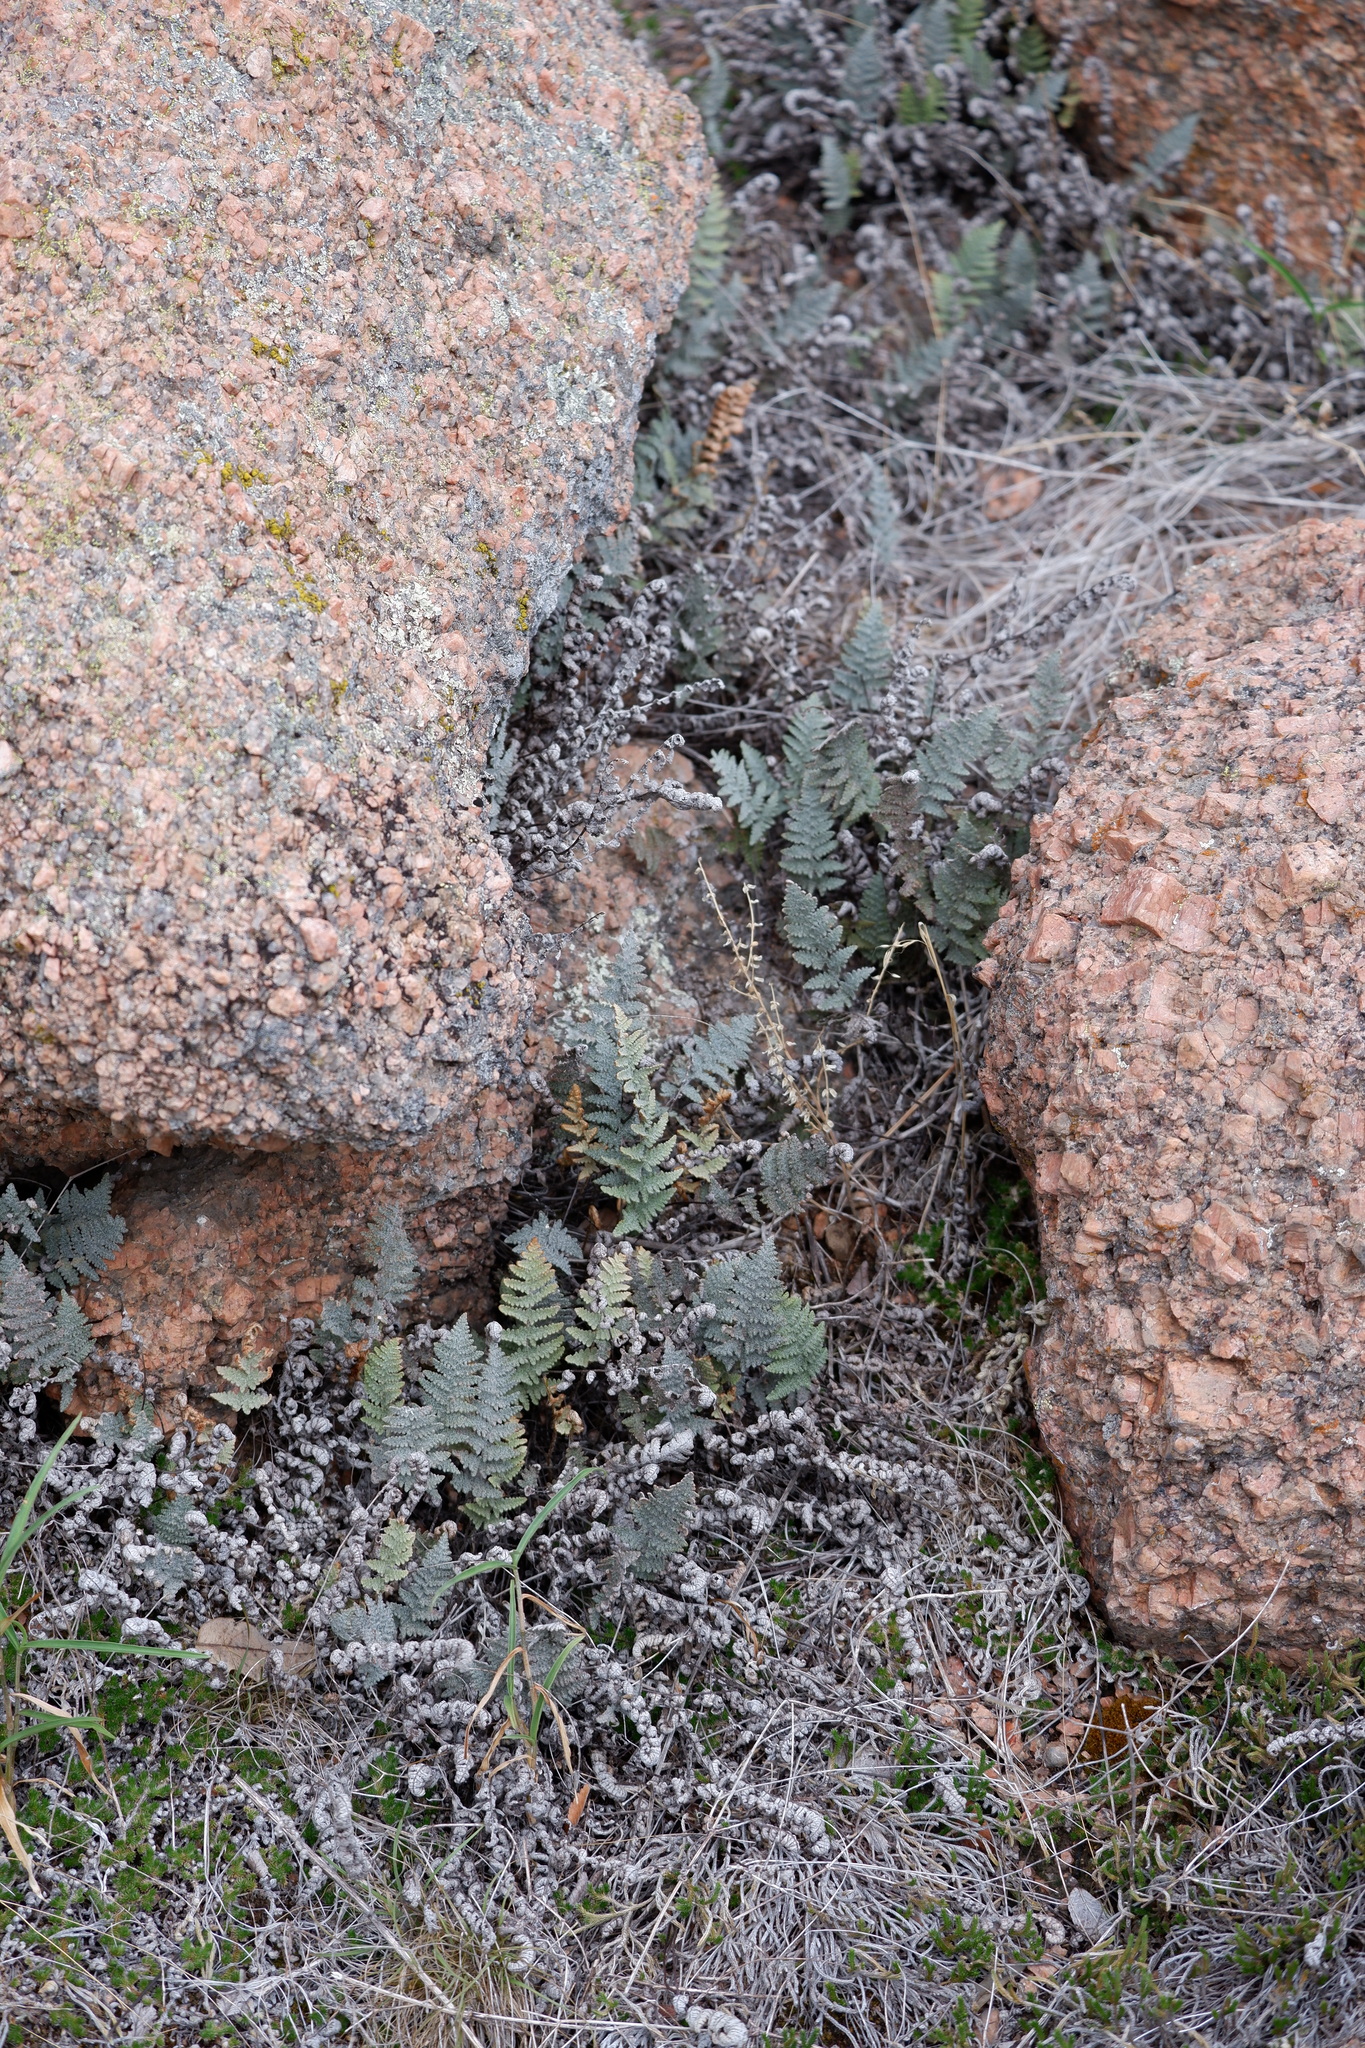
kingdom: Plantae
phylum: Tracheophyta
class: Polypodiopsida
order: Polypodiales
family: Pteridaceae
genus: Myriopteris
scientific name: Myriopteris lindheimeri
